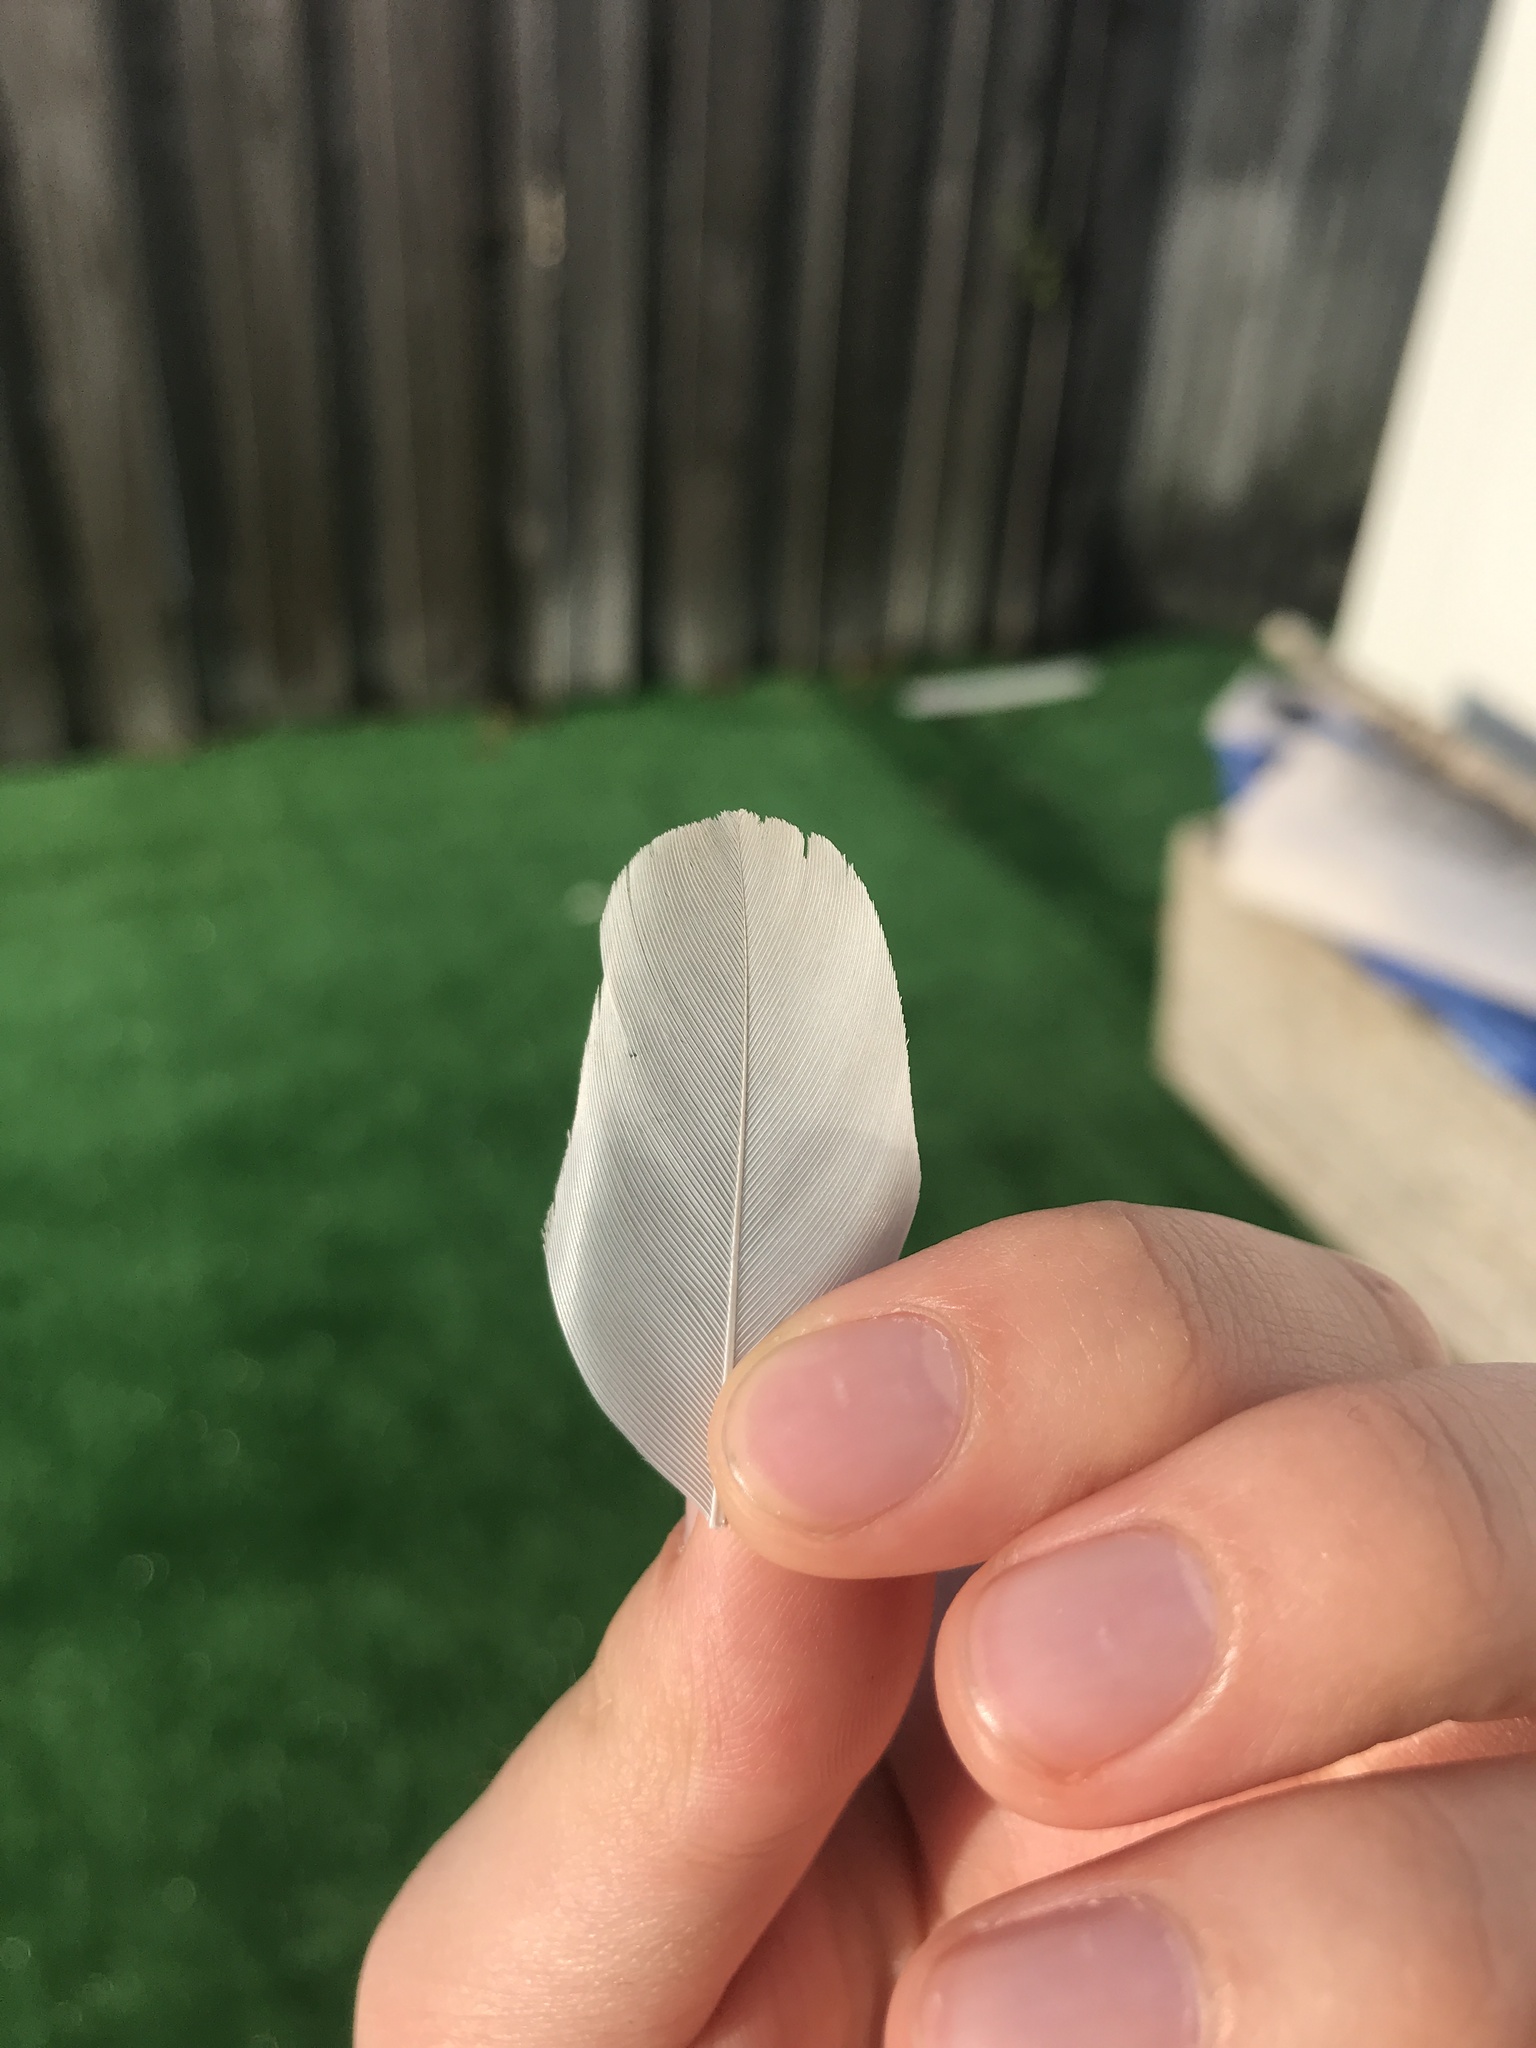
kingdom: Animalia
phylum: Chordata
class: Aves
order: Columbiformes
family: Columbidae
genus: Streptopelia
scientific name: Streptopelia decaocto
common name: Eurasian collared dove
